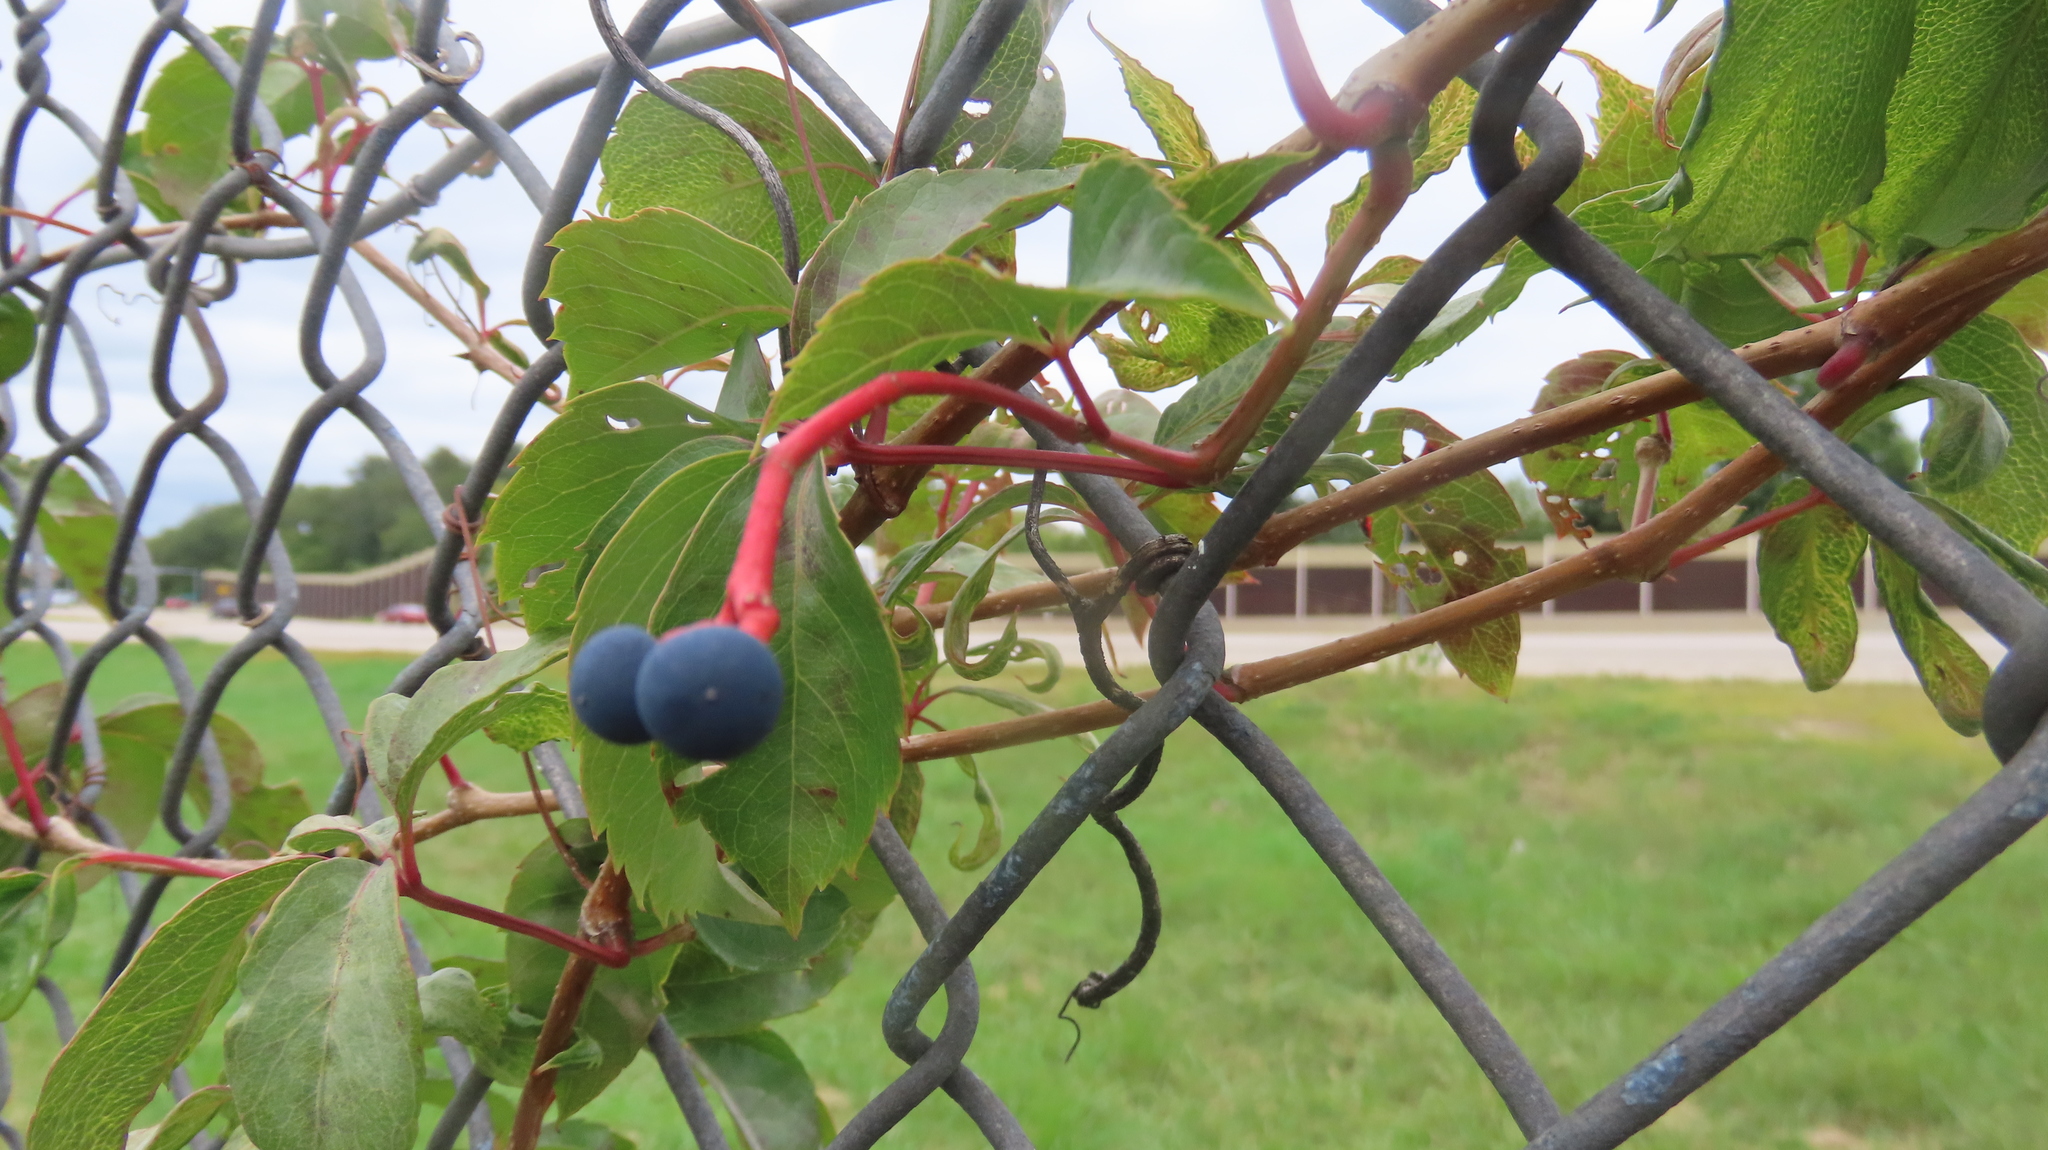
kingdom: Plantae
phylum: Tracheophyta
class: Magnoliopsida
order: Vitales
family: Vitaceae
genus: Parthenocissus
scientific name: Parthenocissus inserta
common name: False virginia-creeper
